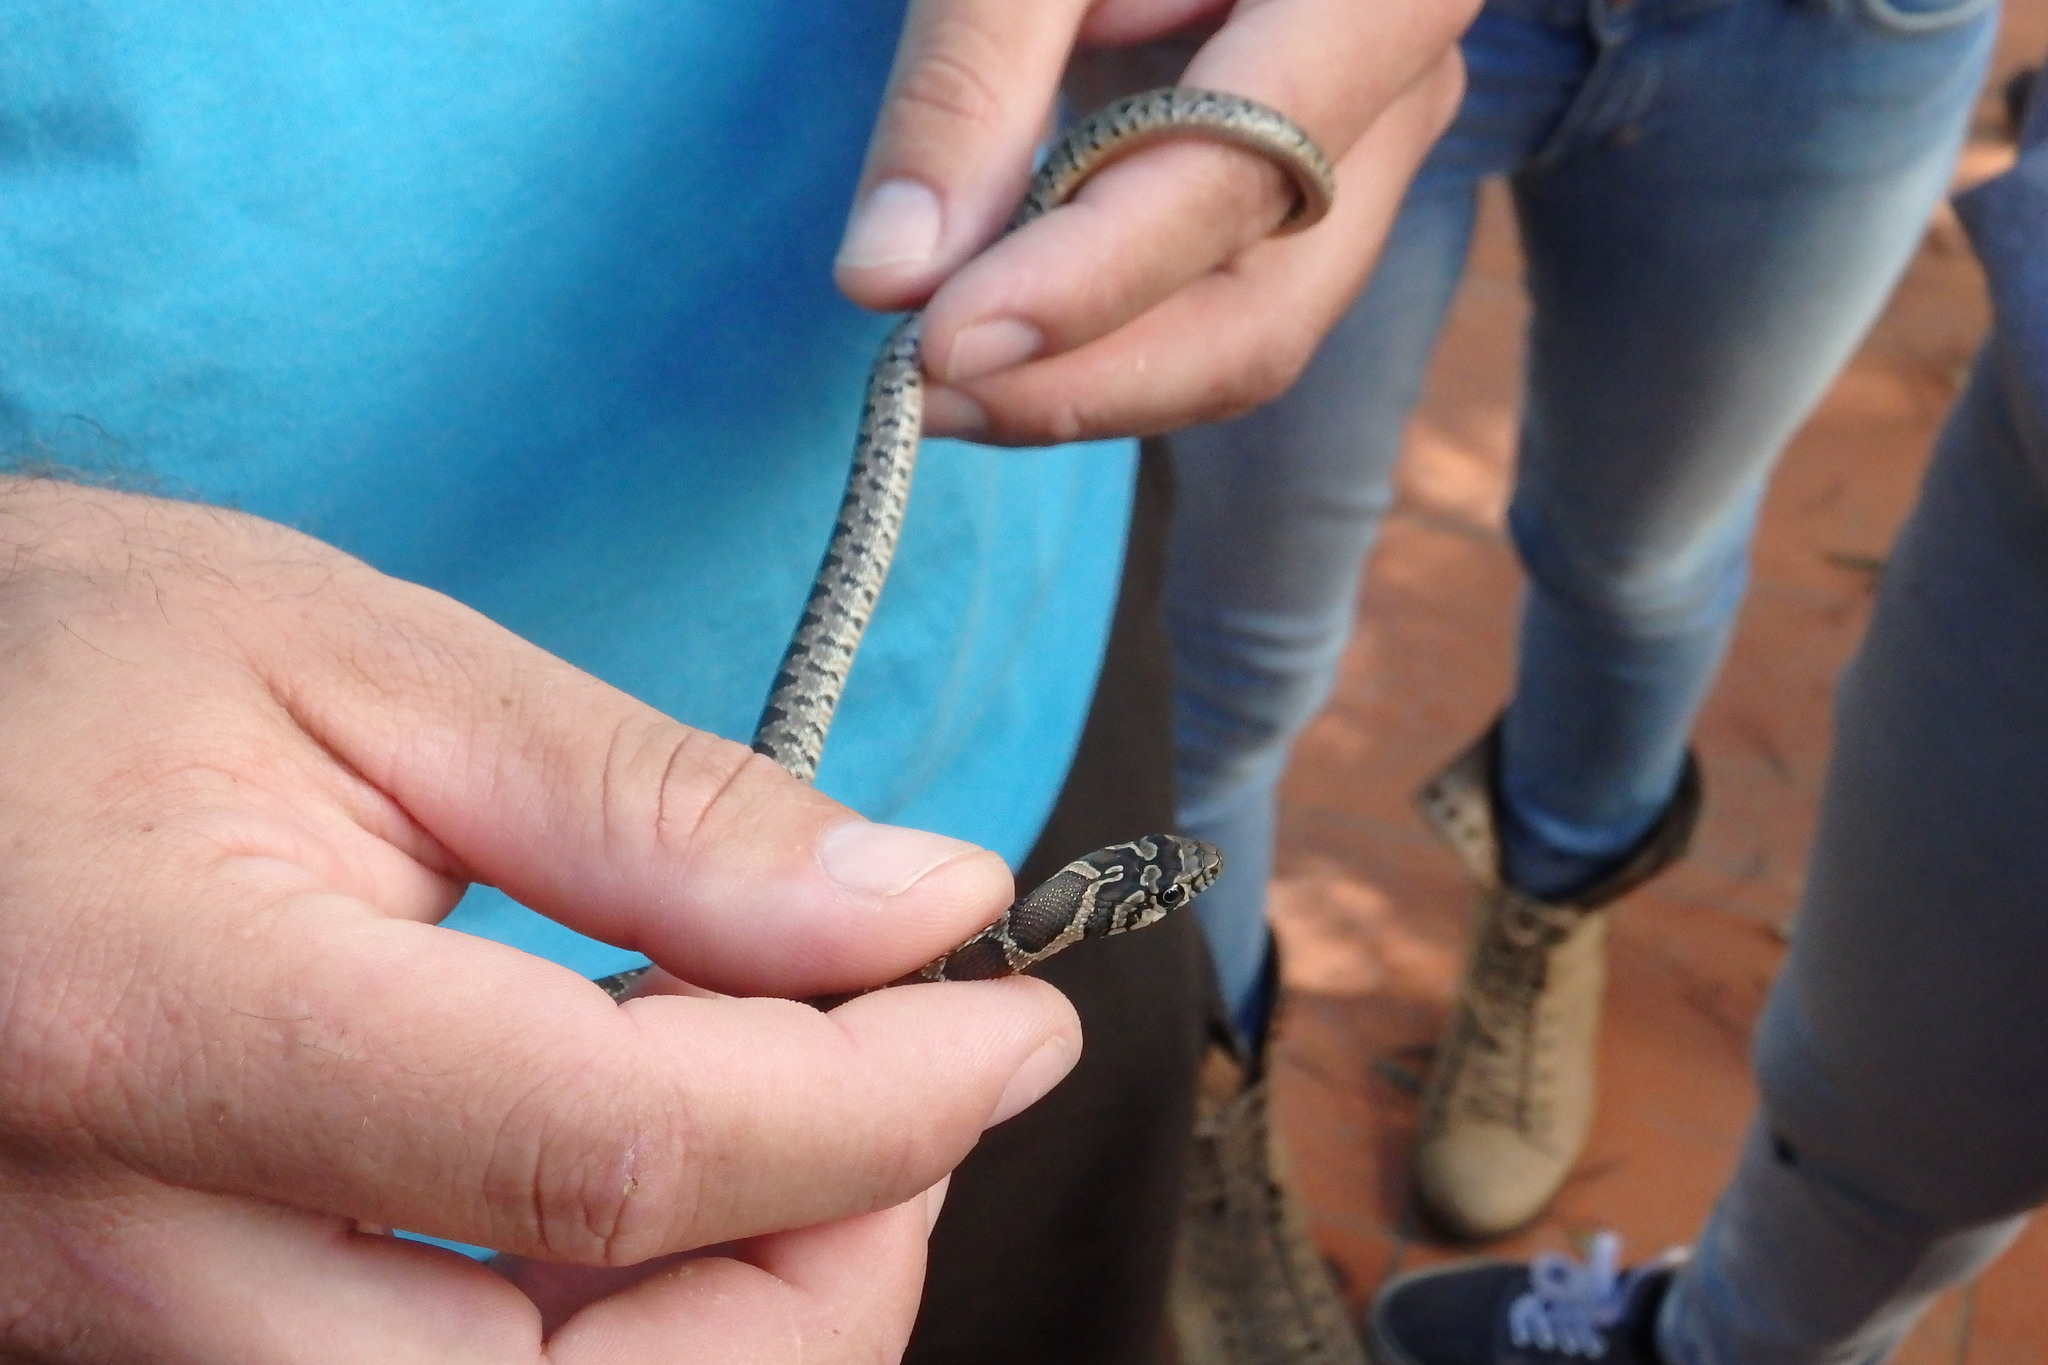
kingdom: Animalia
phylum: Chordata
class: Squamata
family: Colubridae
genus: Hemorrhois
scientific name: Hemorrhois hippocrepis
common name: Horseshoe whip snake
